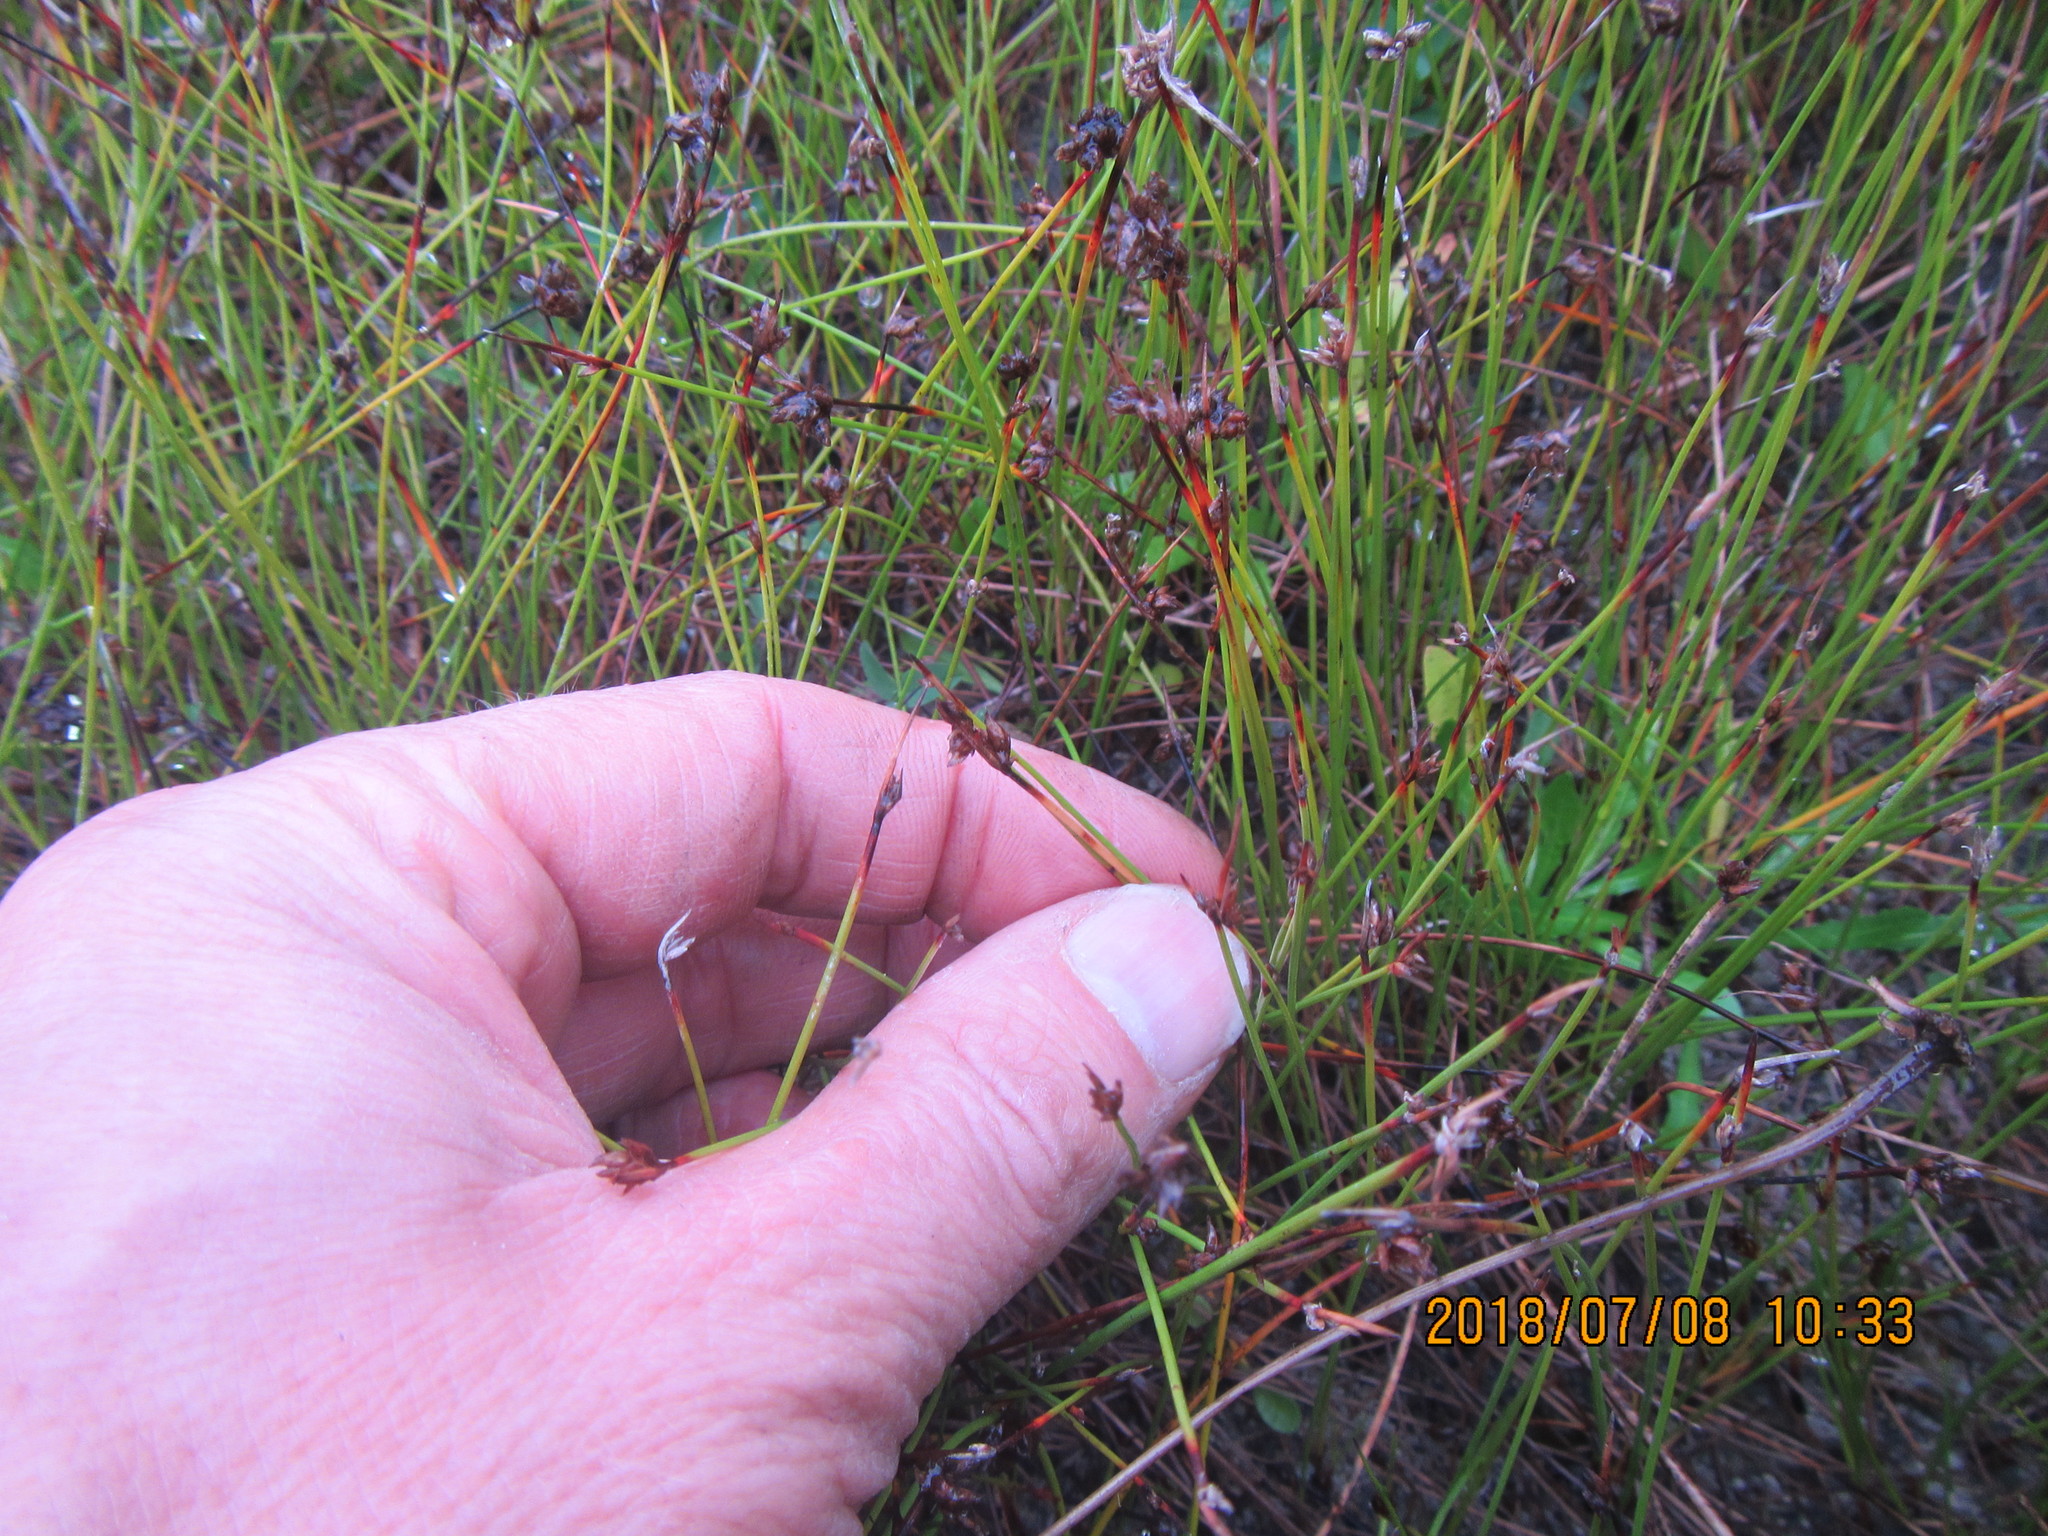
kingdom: Plantae
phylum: Tracheophyta
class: Liliopsida
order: Poales
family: Cyperaceae
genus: Schoenus
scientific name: Schoenus nitens
